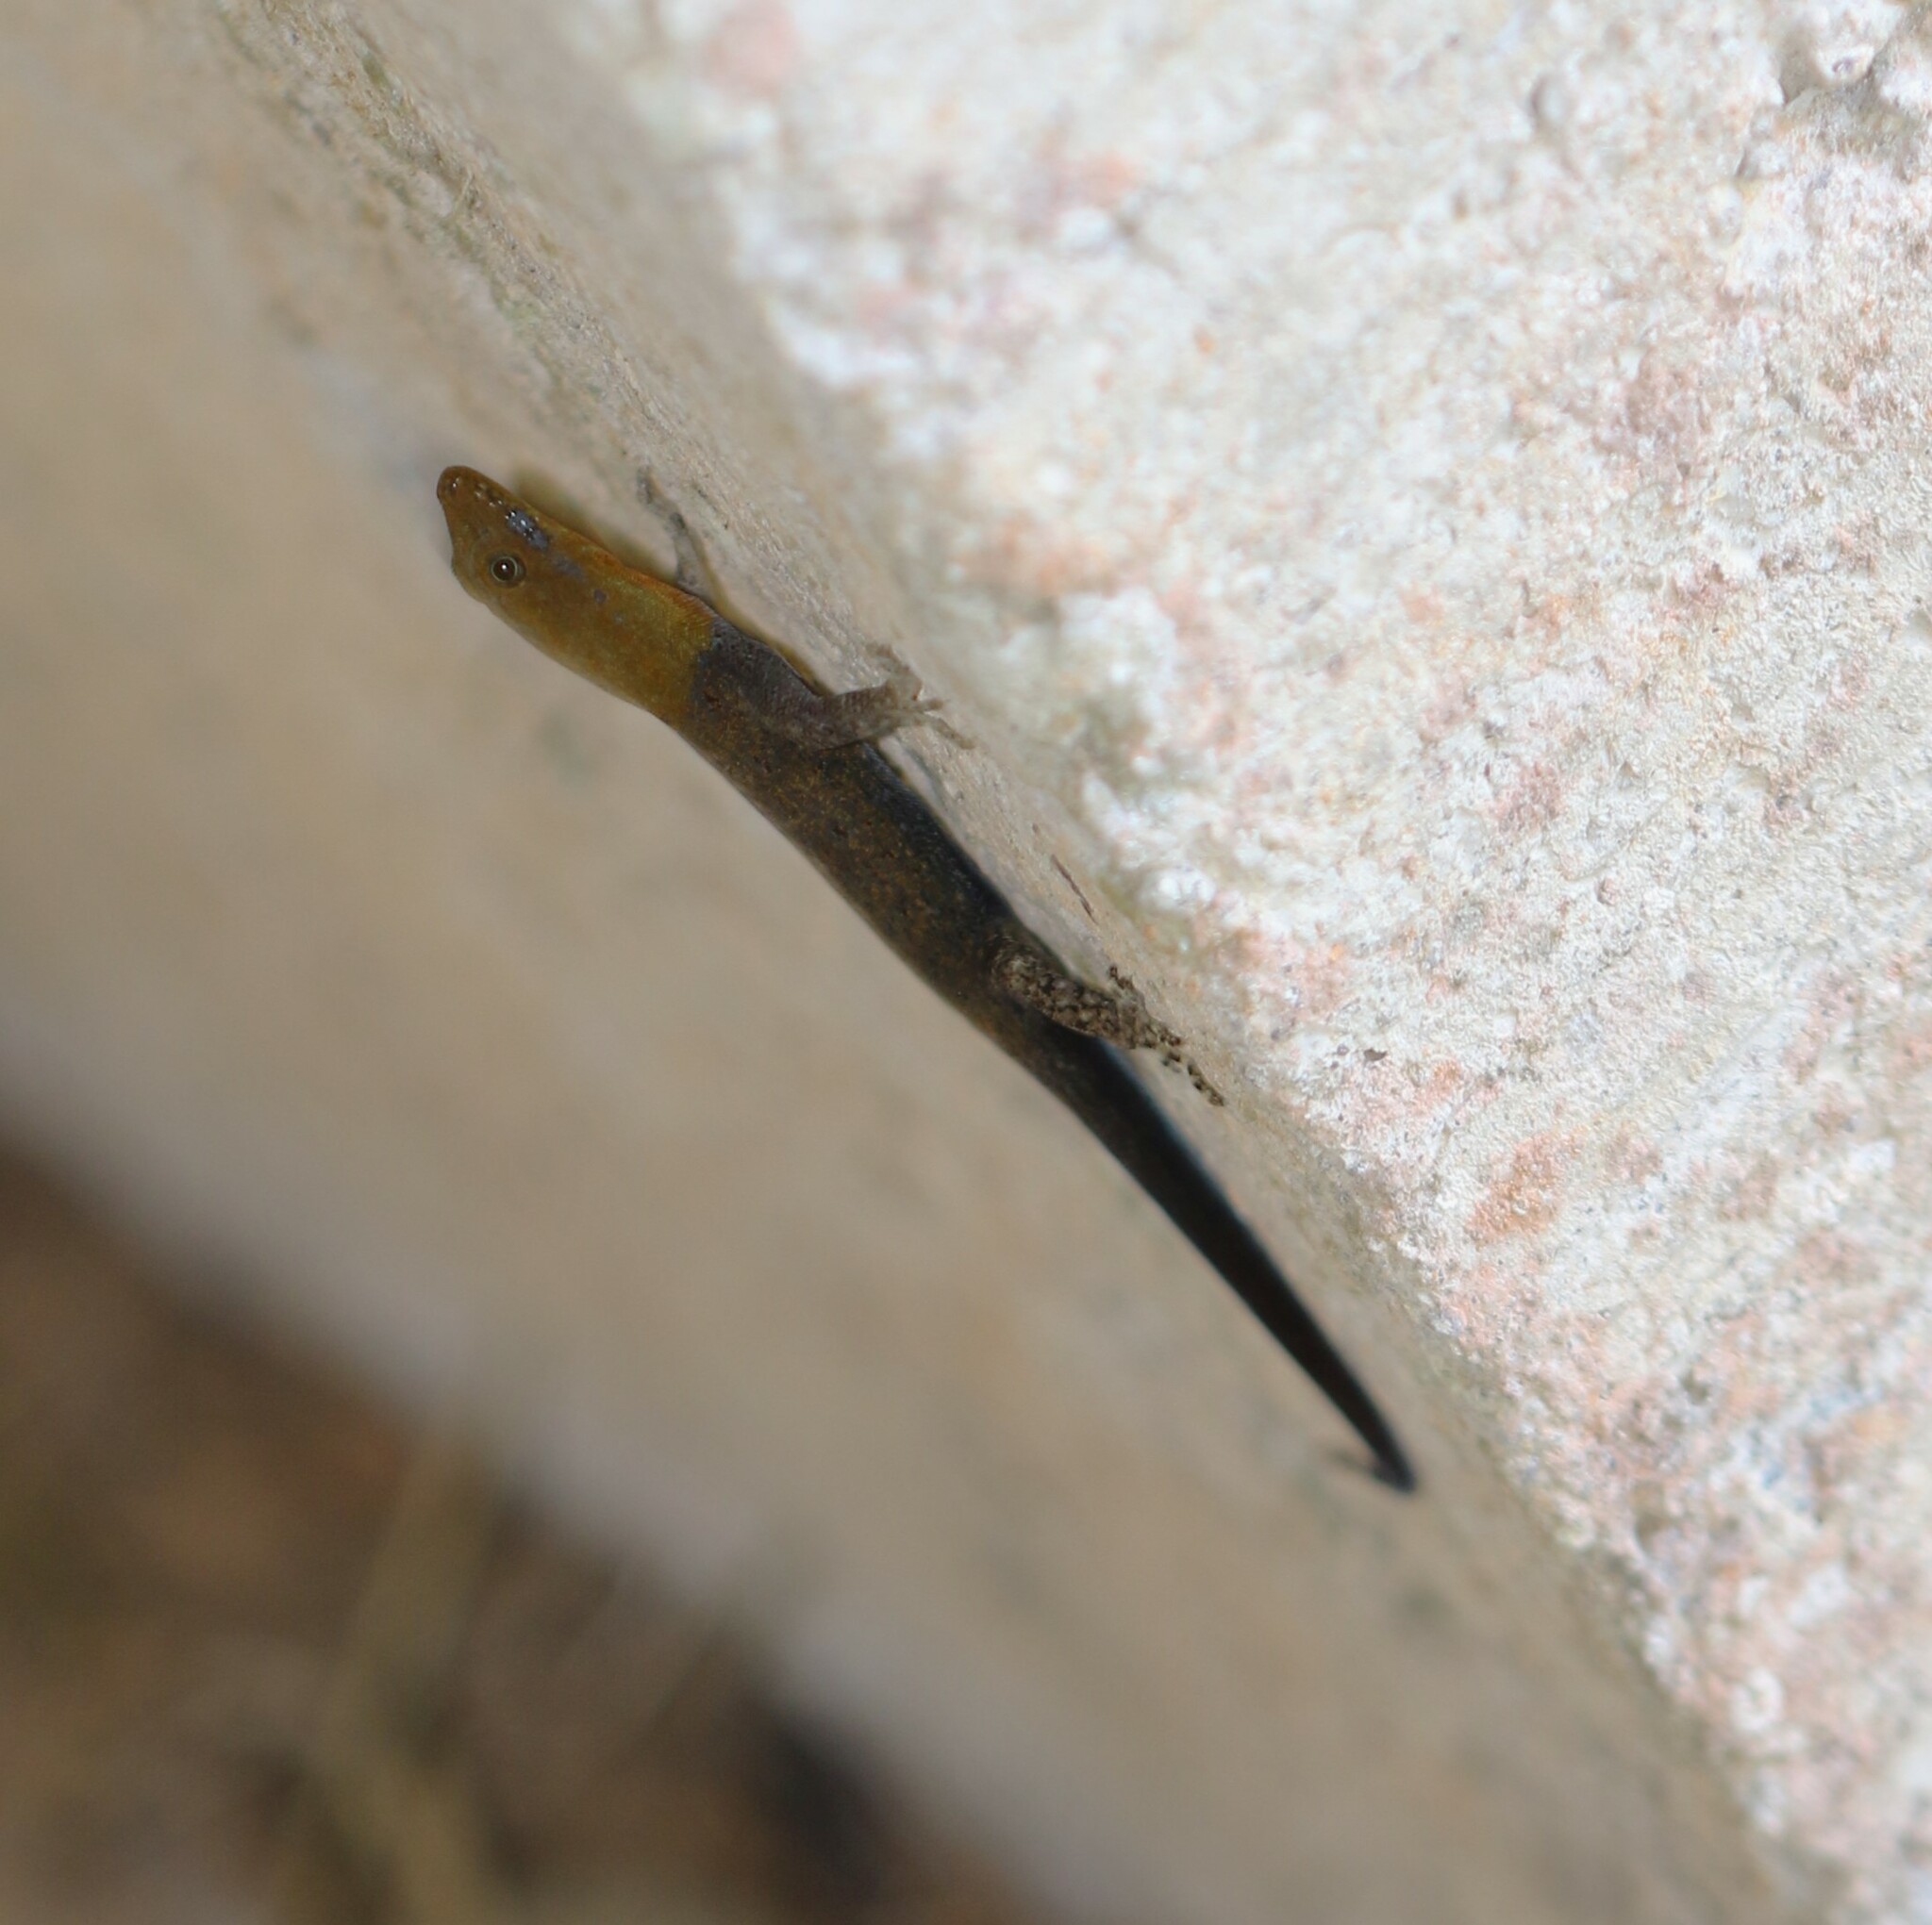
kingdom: Animalia
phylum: Chordata
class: Squamata
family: Sphaerodactylidae
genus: Gonatodes
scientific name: Gonatodes albogularis
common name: Yellow-headed gecko
